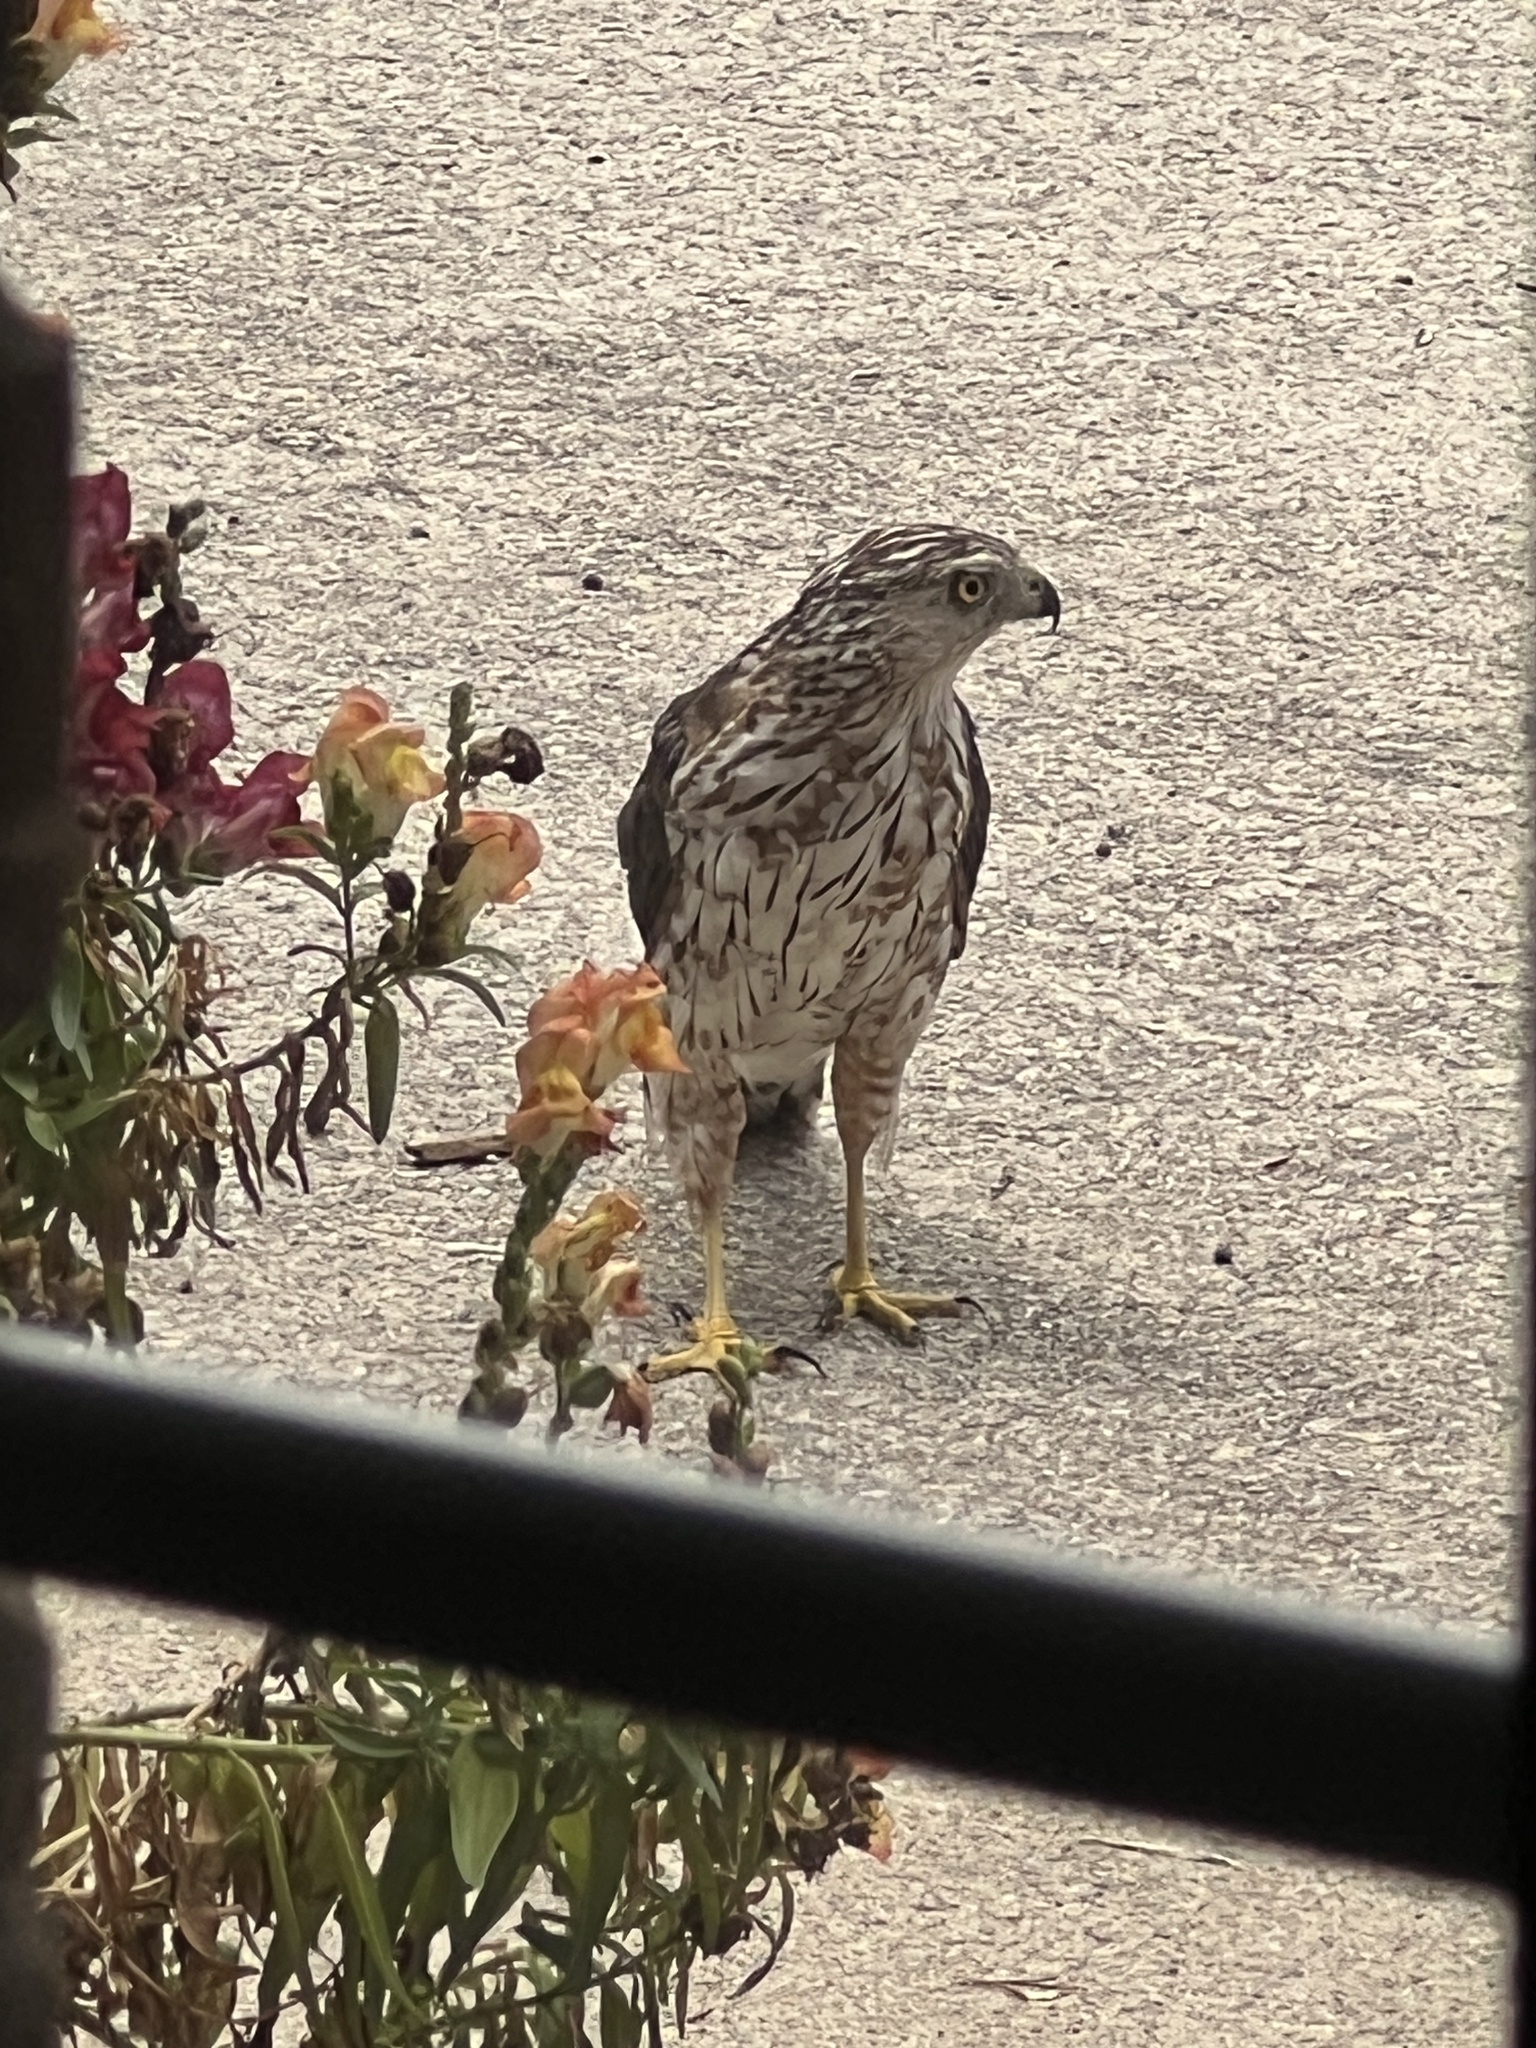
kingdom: Animalia
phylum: Chordata
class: Aves
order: Accipitriformes
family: Accipitridae
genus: Accipiter
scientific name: Accipiter cooperii
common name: Cooper's hawk
